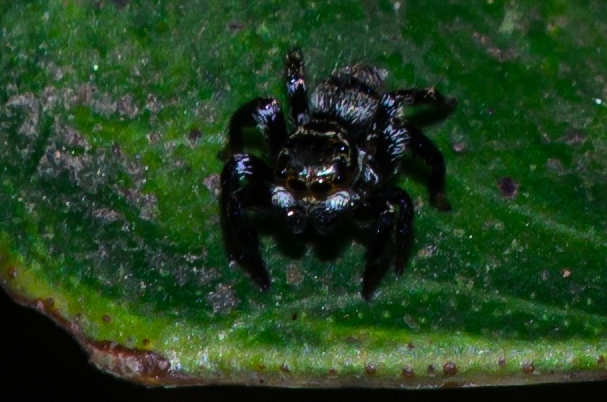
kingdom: Animalia
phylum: Arthropoda
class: Arachnida
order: Araneae
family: Salticidae
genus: Corythalia
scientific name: Corythalia conferta
